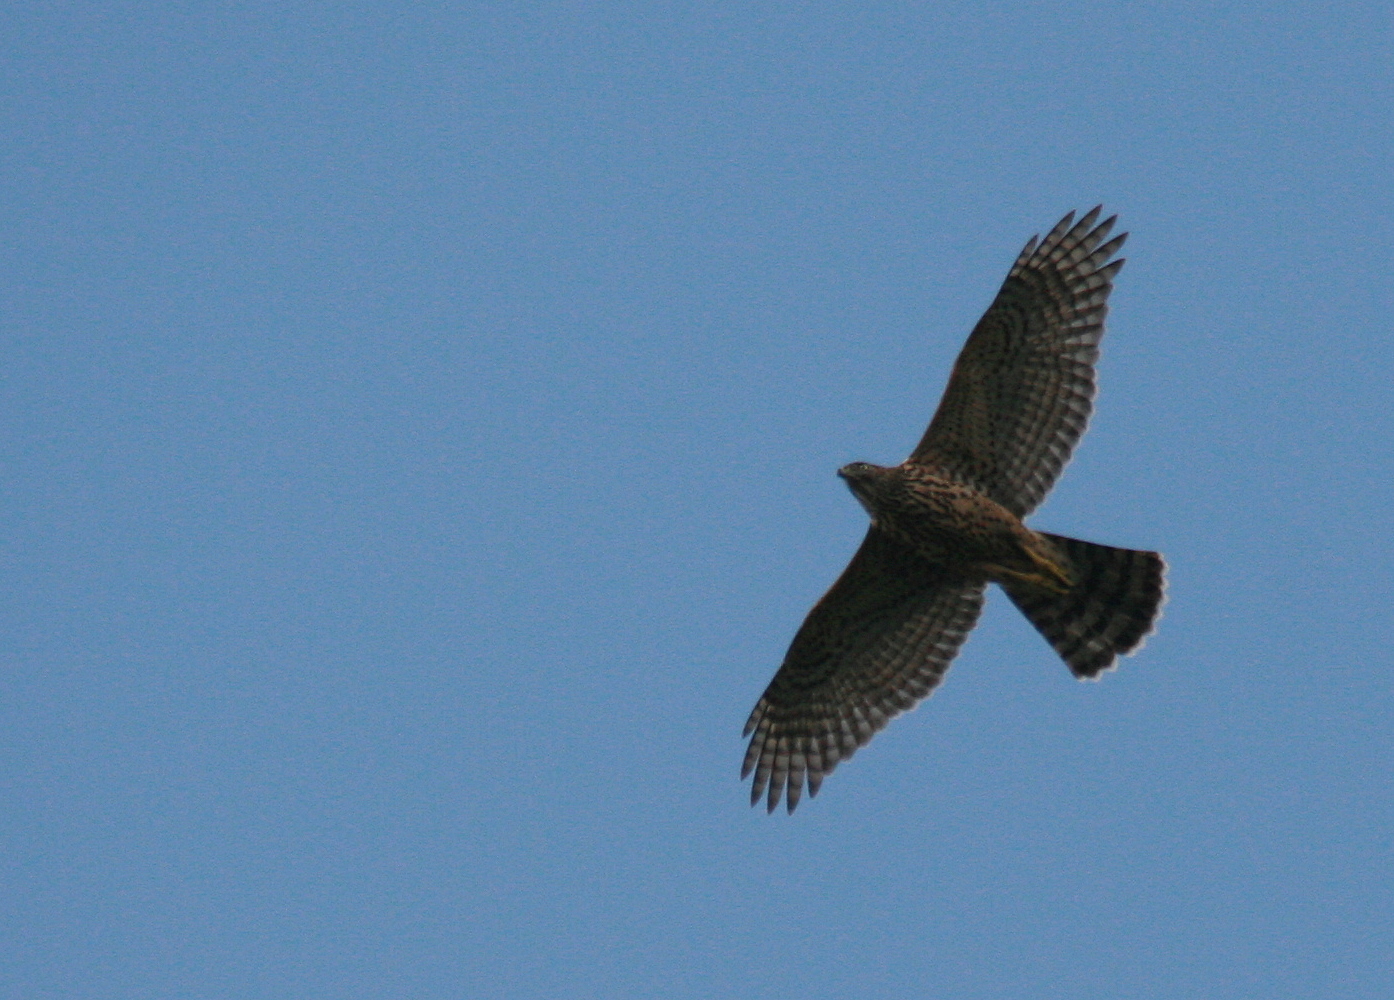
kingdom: Animalia
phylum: Chordata
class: Aves
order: Accipitriformes
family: Accipitridae
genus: Accipiter
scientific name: Accipiter gentilis
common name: Northern goshawk
